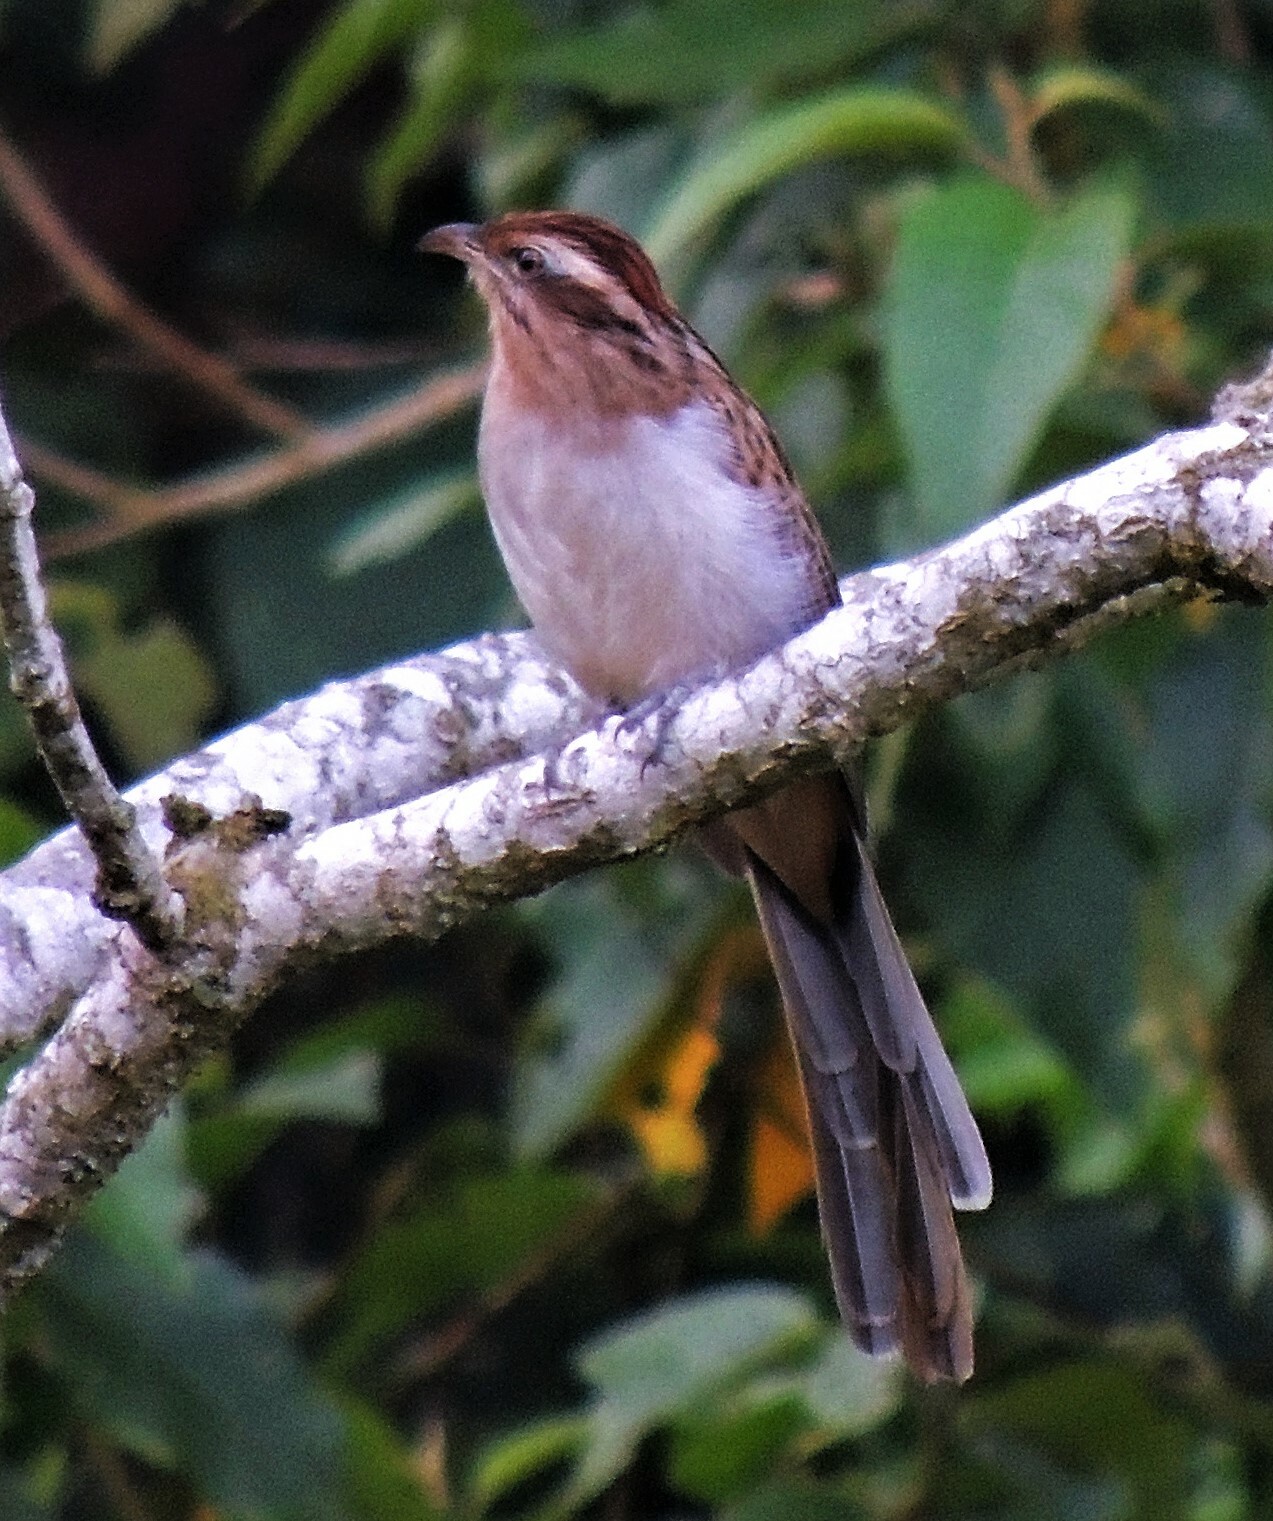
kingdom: Animalia
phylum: Chordata
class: Aves
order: Cuculiformes
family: Cuculidae
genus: Tapera
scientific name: Tapera naevia
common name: Striped cuckoo
